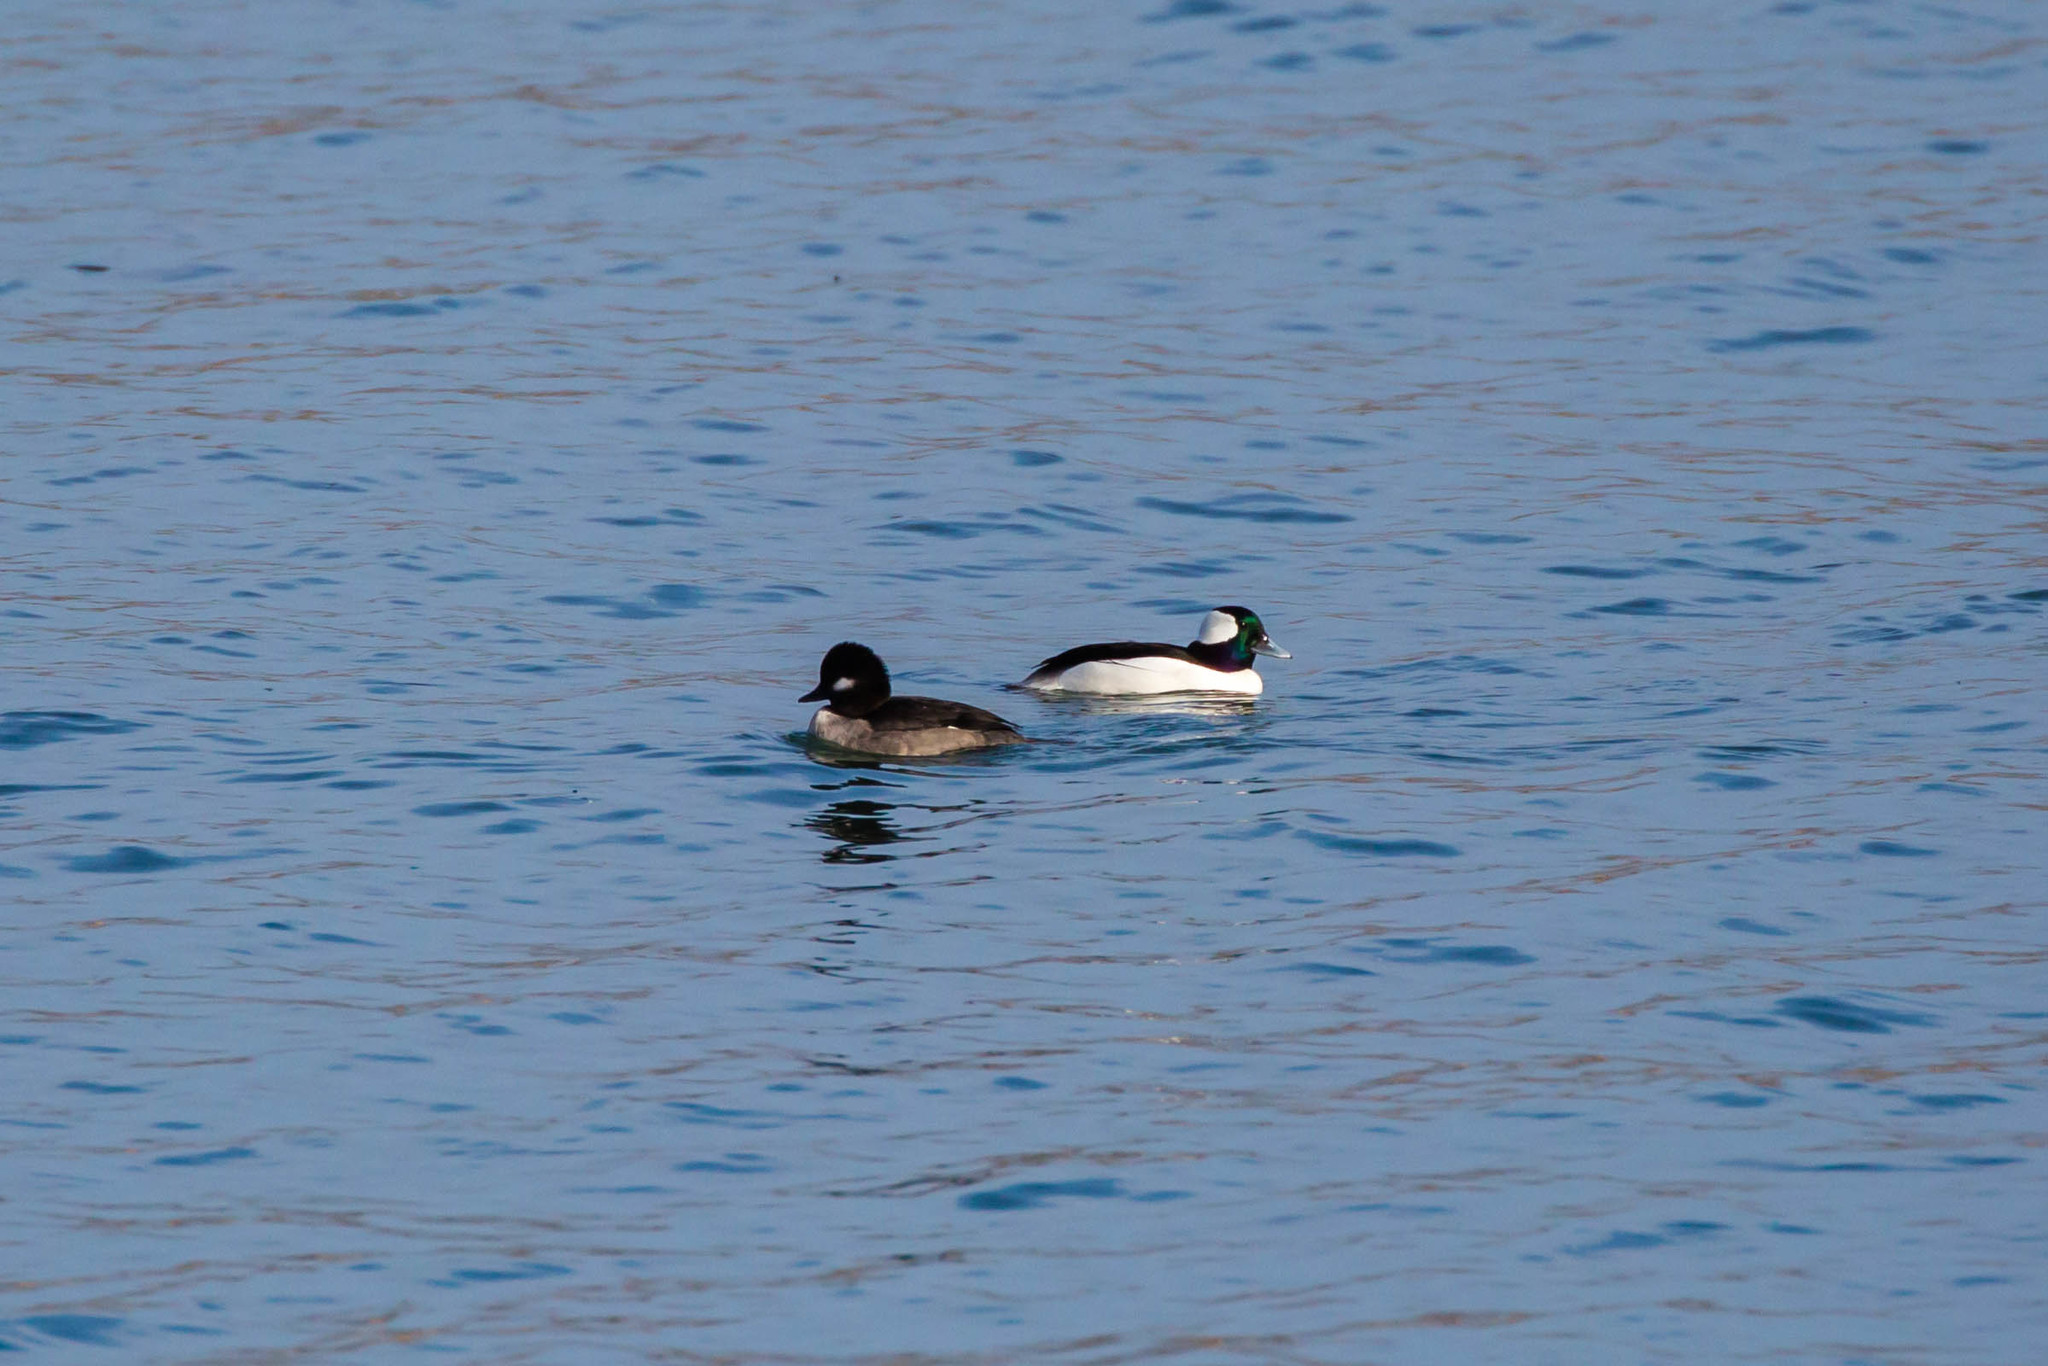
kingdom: Animalia
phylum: Chordata
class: Aves
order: Anseriformes
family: Anatidae
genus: Bucephala
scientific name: Bucephala albeola
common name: Bufflehead
